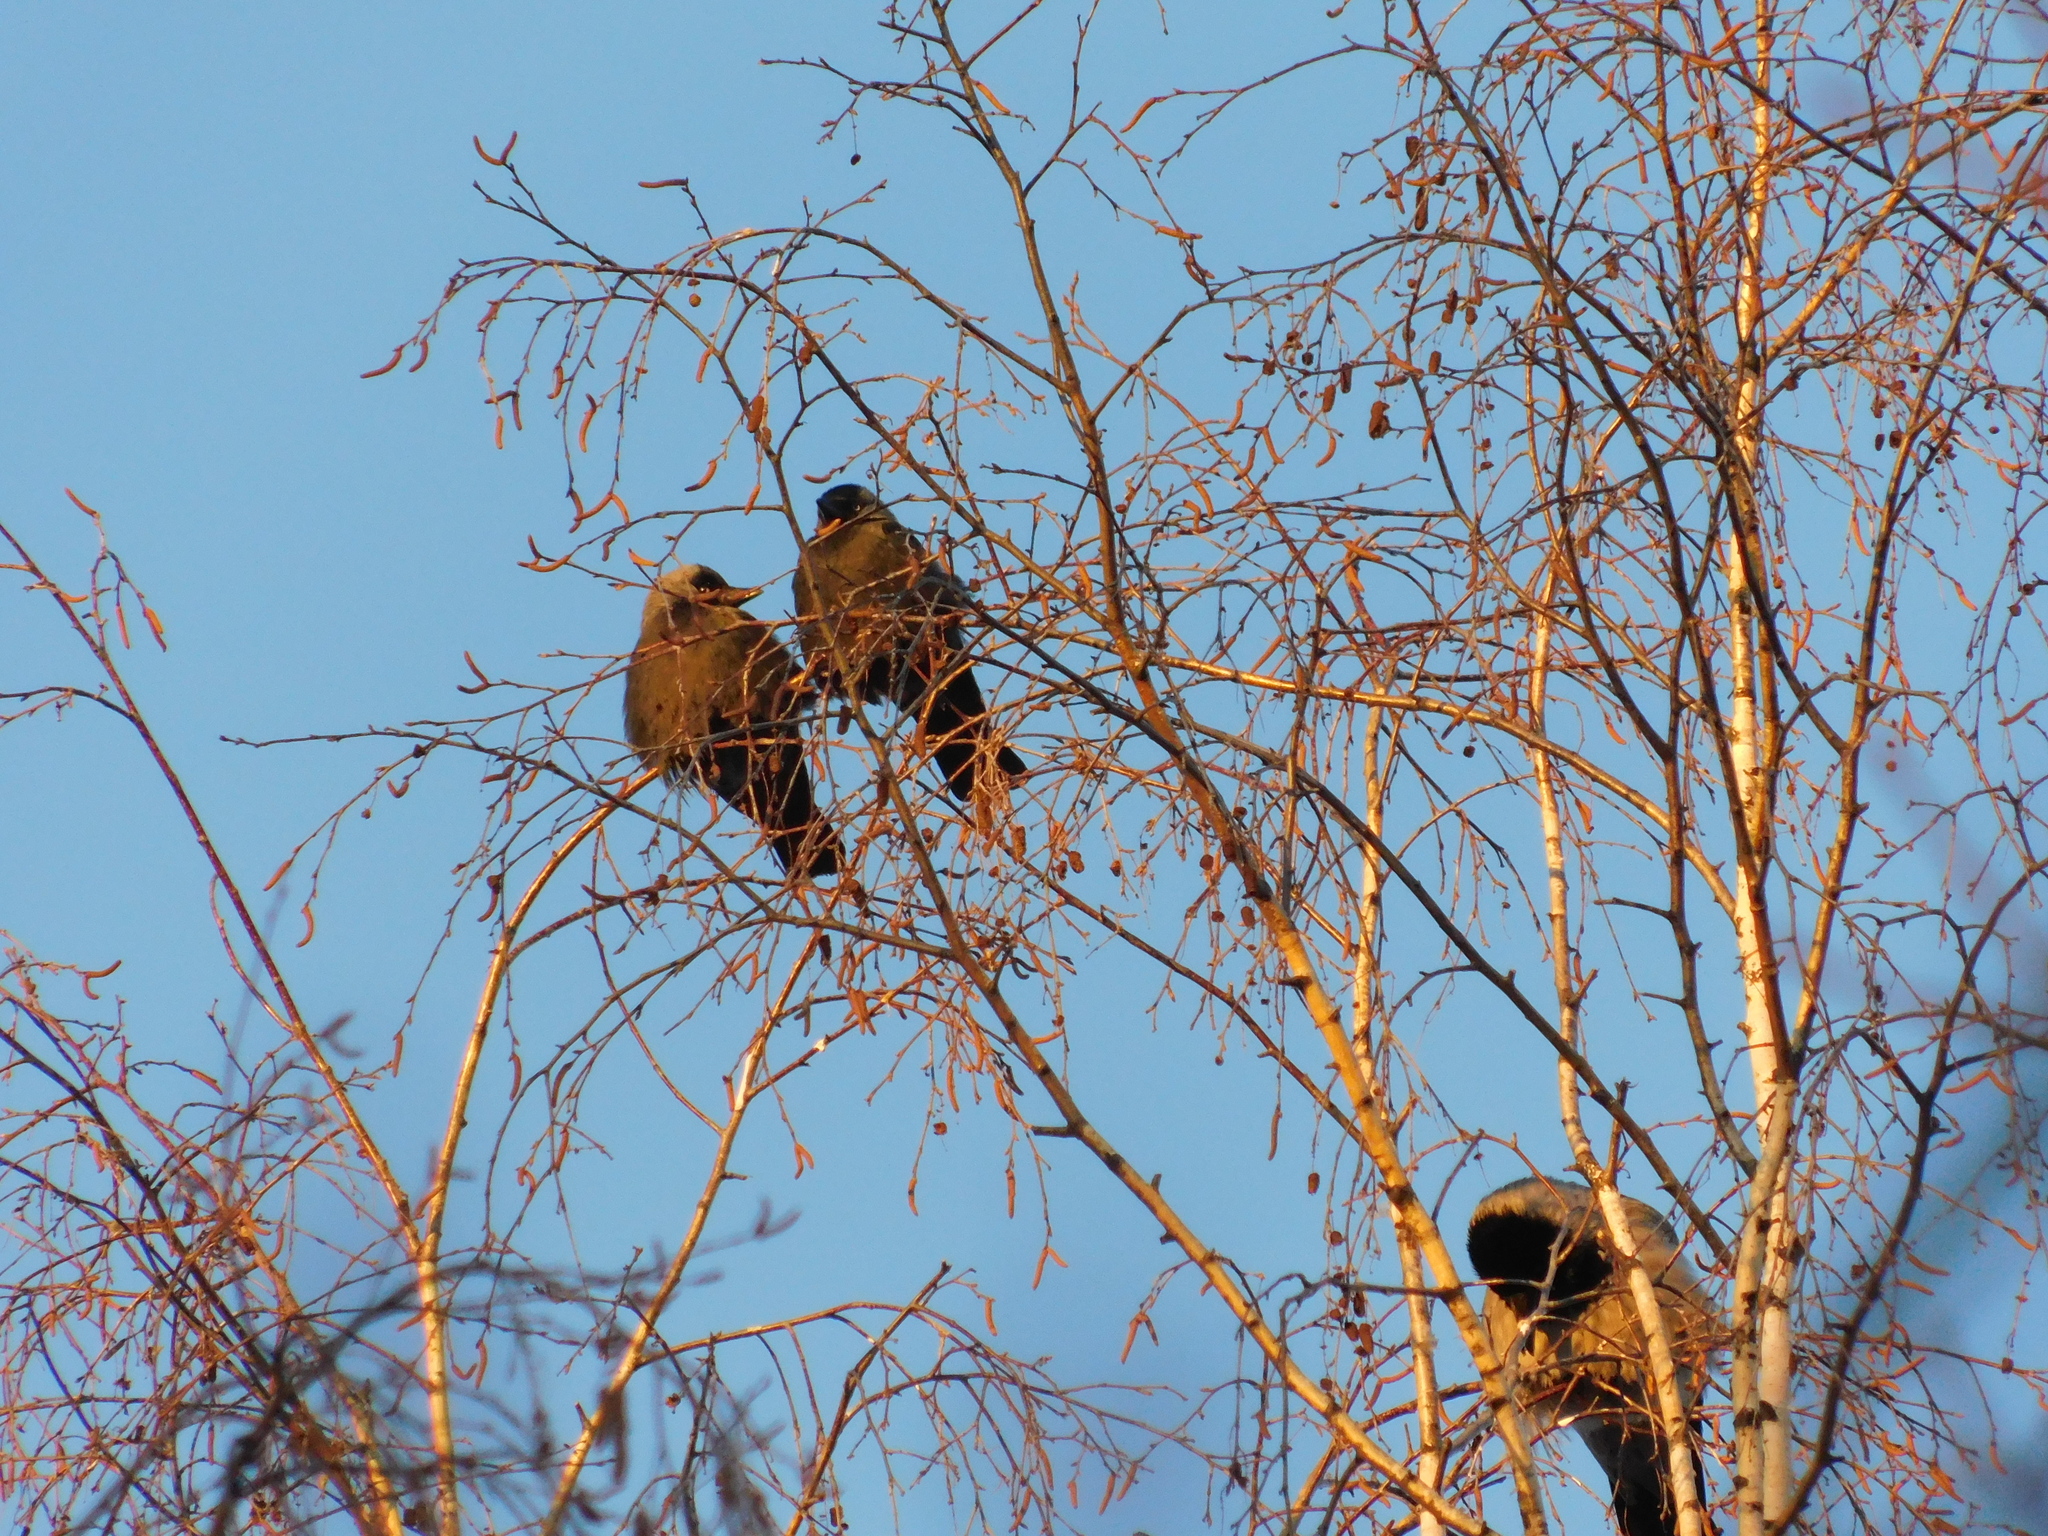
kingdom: Animalia
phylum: Chordata
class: Aves
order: Passeriformes
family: Corvidae
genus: Coloeus
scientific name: Coloeus monedula
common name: Western jackdaw
